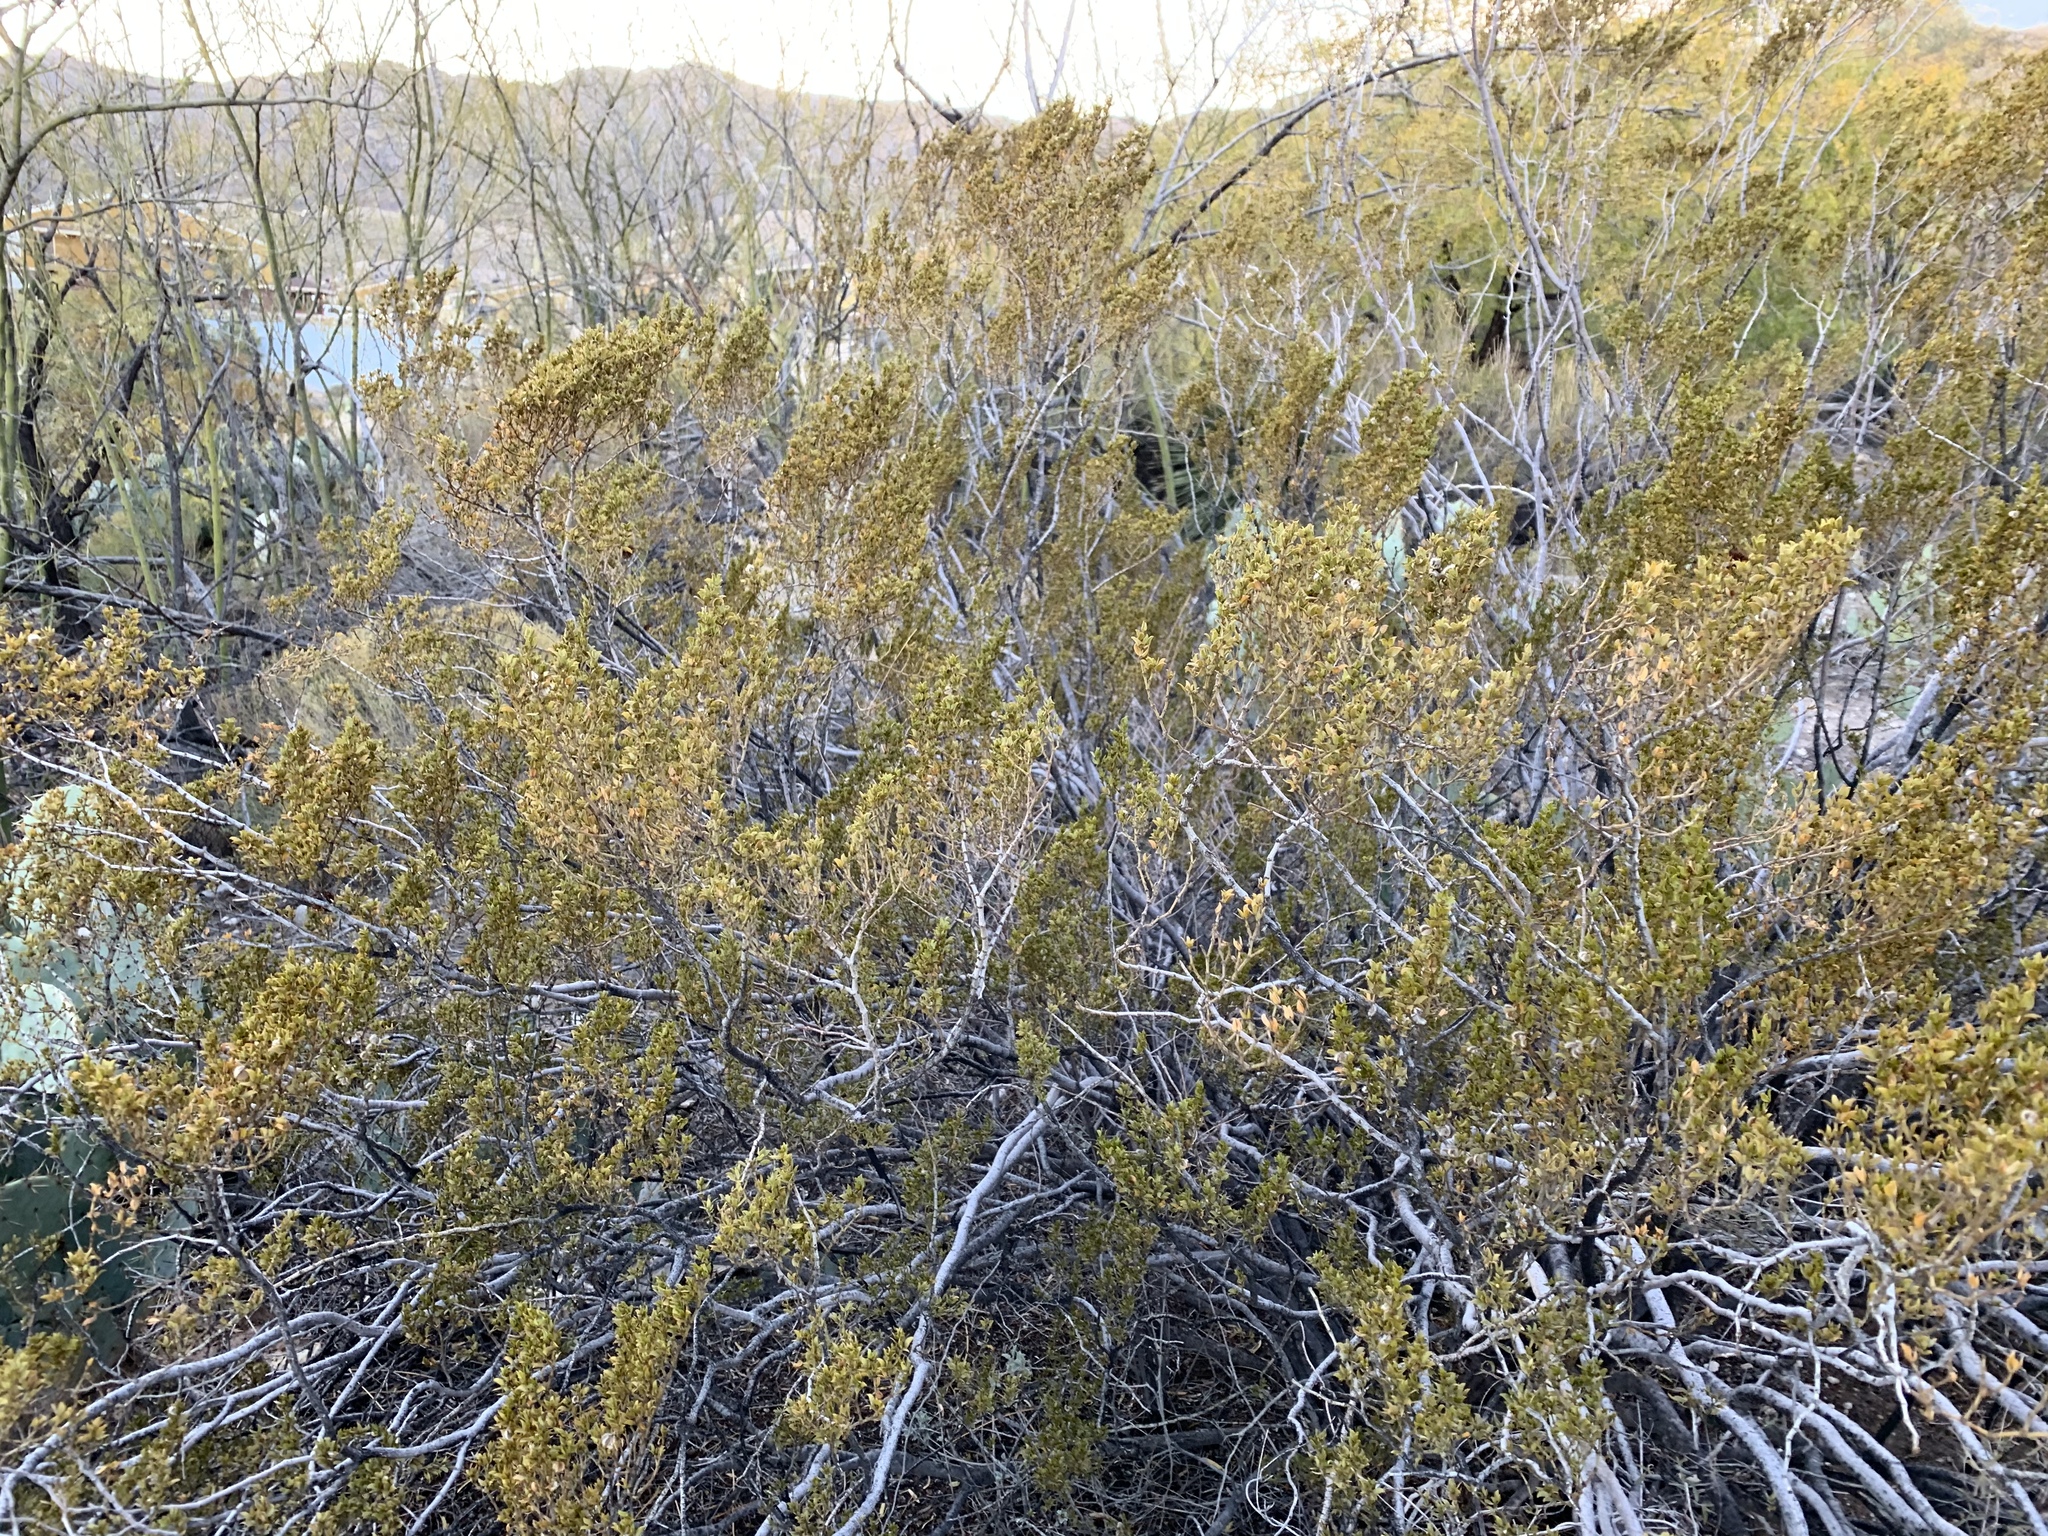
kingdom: Plantae
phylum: Tracheophyta
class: Magnoliopsida
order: Zygophyllales
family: Zygophyllaceae
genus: Larrea
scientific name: Larrea tridentata
